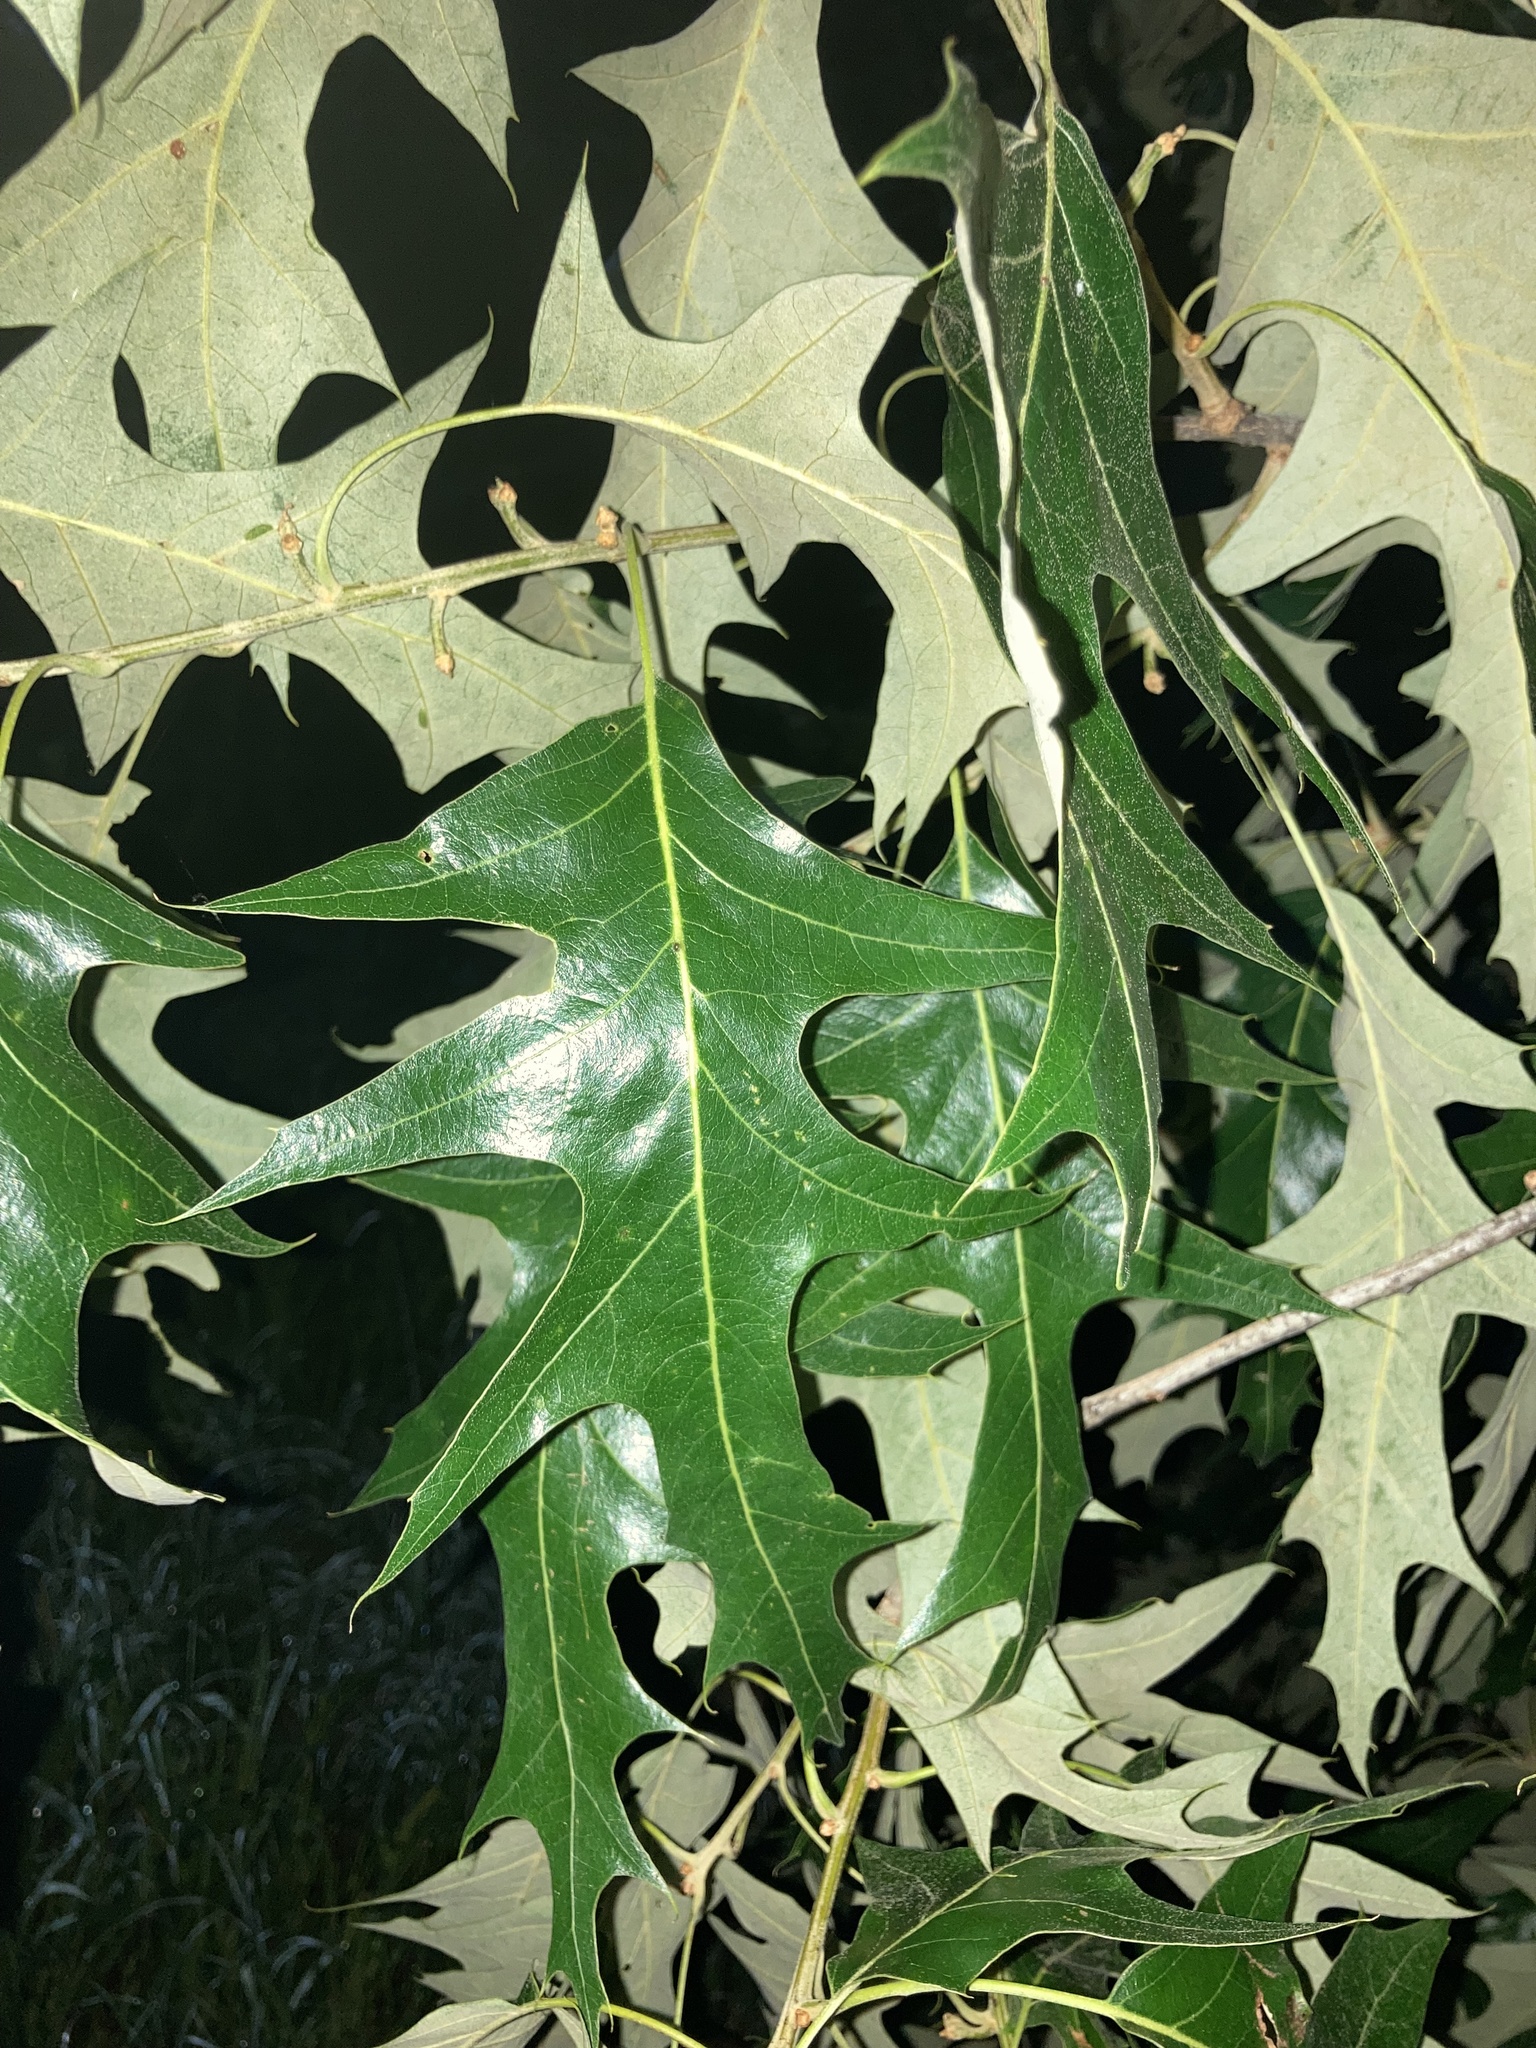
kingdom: Plantae
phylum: Tracheophyta
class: Magnoliopsida
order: Fagales
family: Fagaceae
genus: Quercus
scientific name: Quercus pagoda
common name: Cherrybark oak
